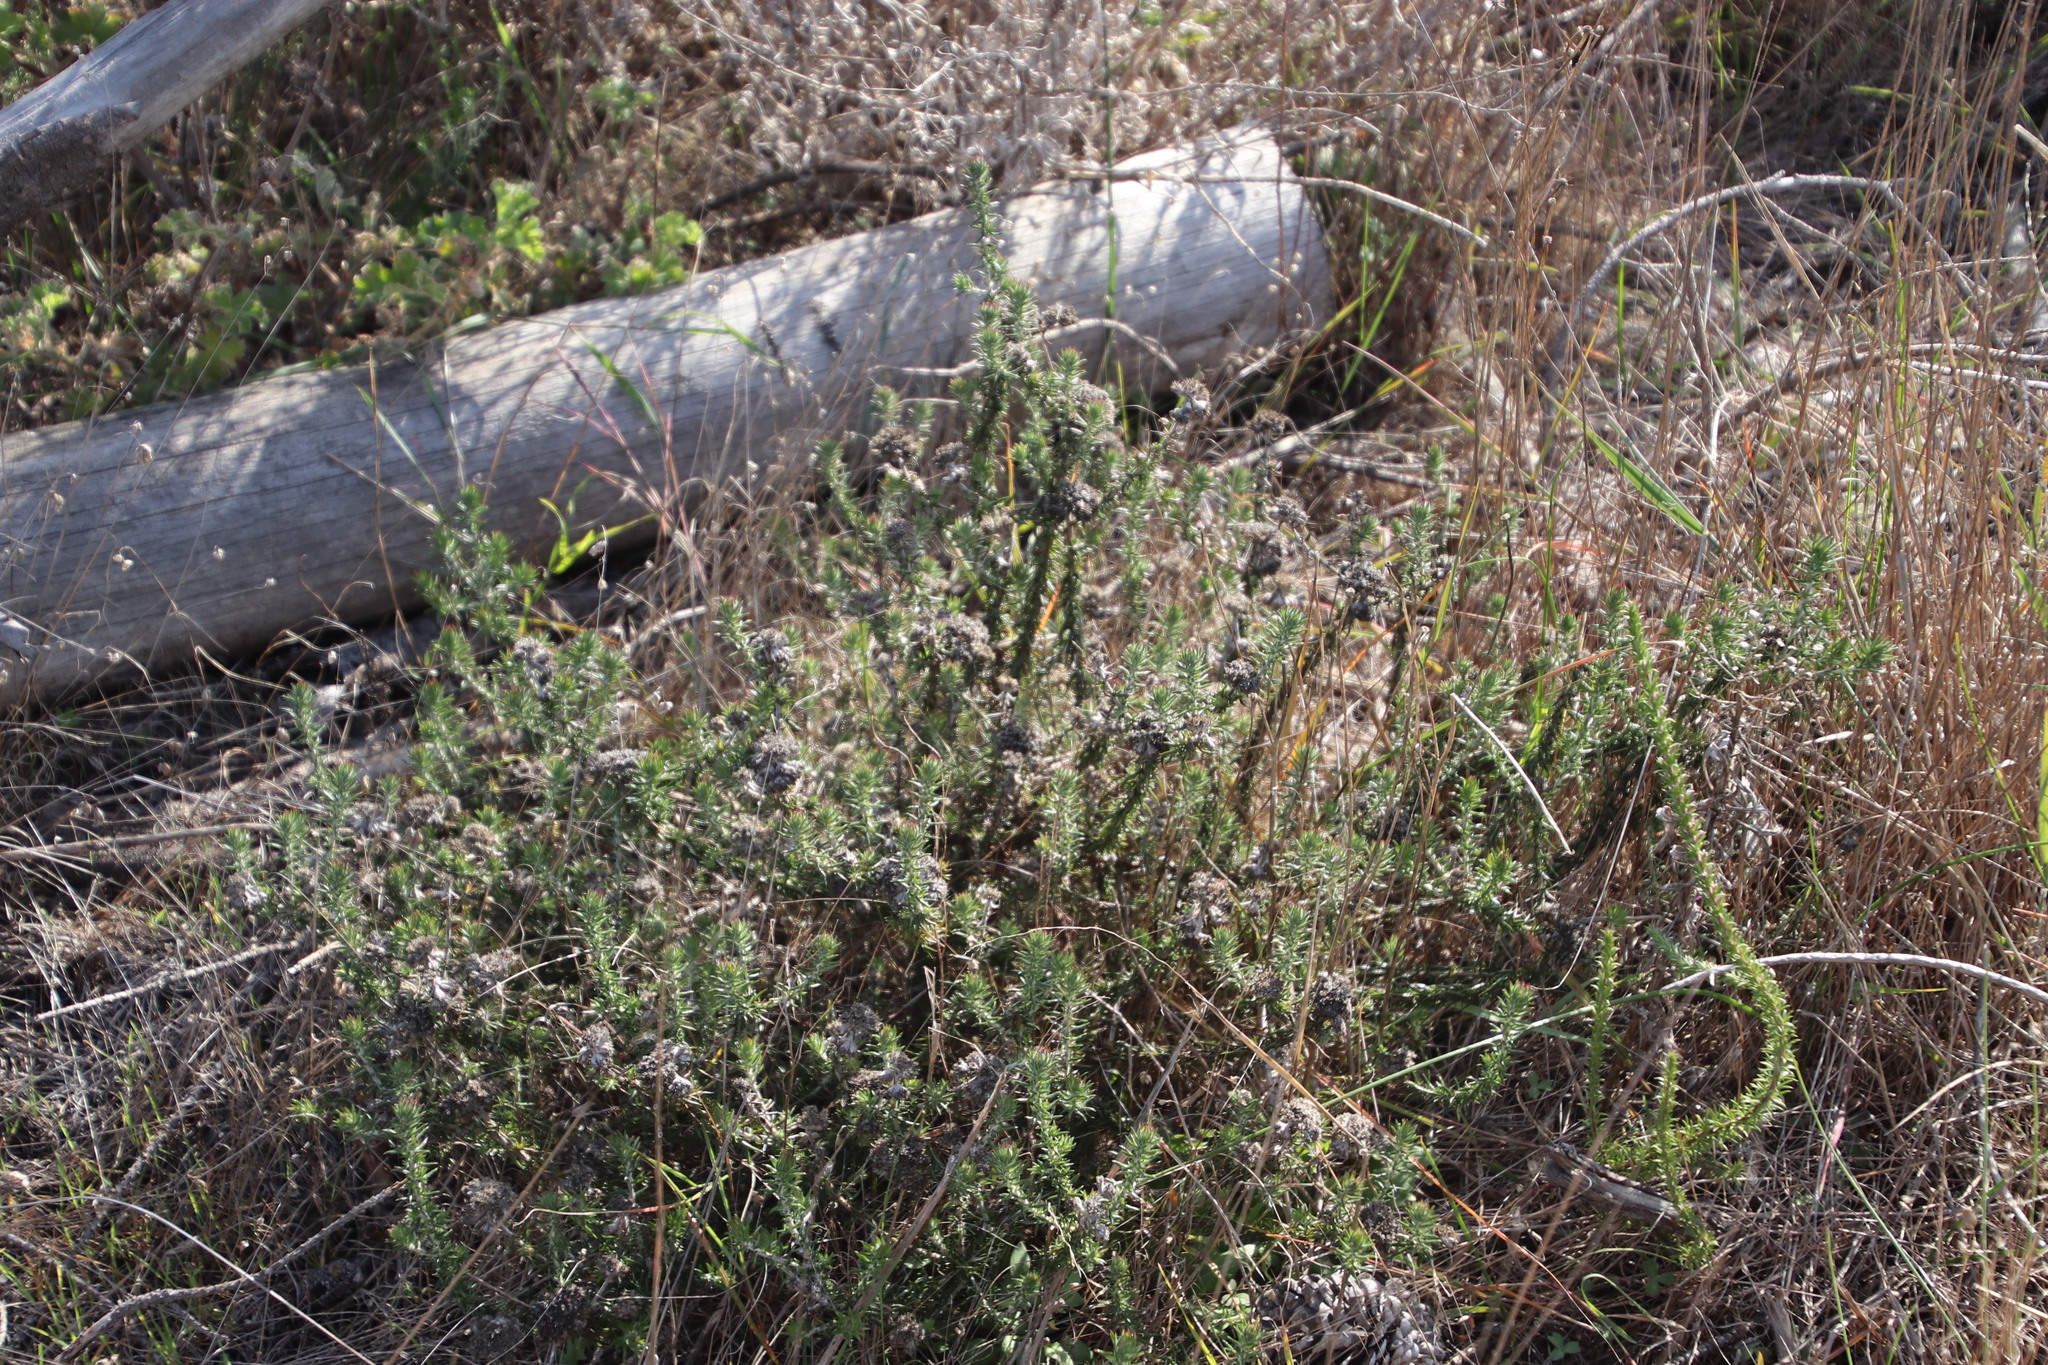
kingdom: Plantae
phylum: Tracheophyta
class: Magnoliopsida
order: Asterales
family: Asteraceae
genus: Metalasia
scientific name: Metalasia compacta
